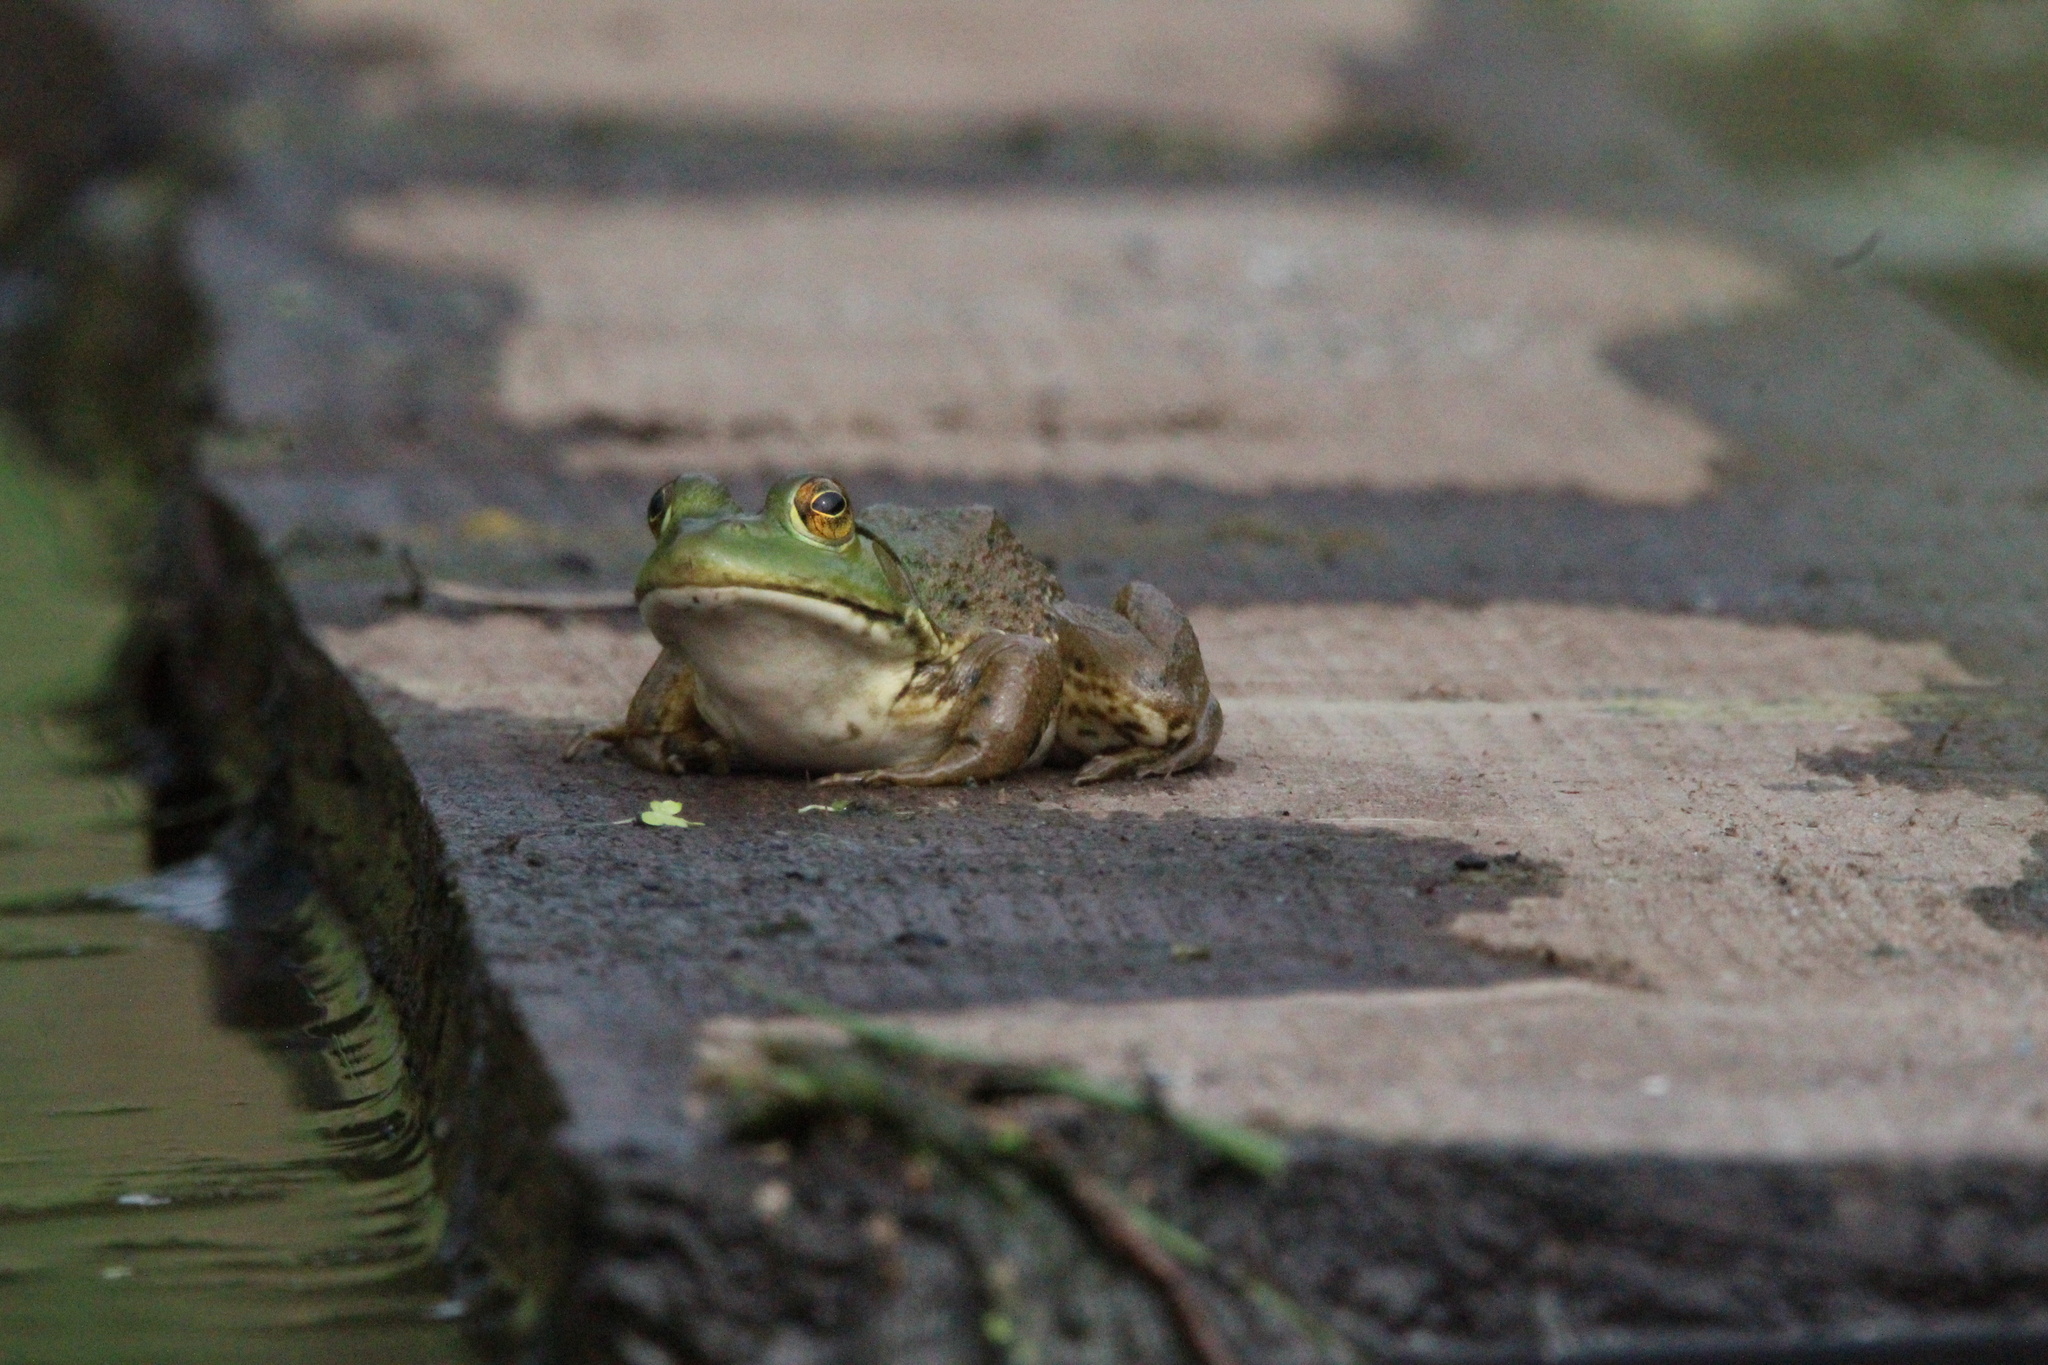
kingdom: Animalia
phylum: Chordata
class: Amphibia
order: Anura
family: Ranidae
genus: Lithobates
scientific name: Lithobates catesbeianus
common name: American bullfrog
